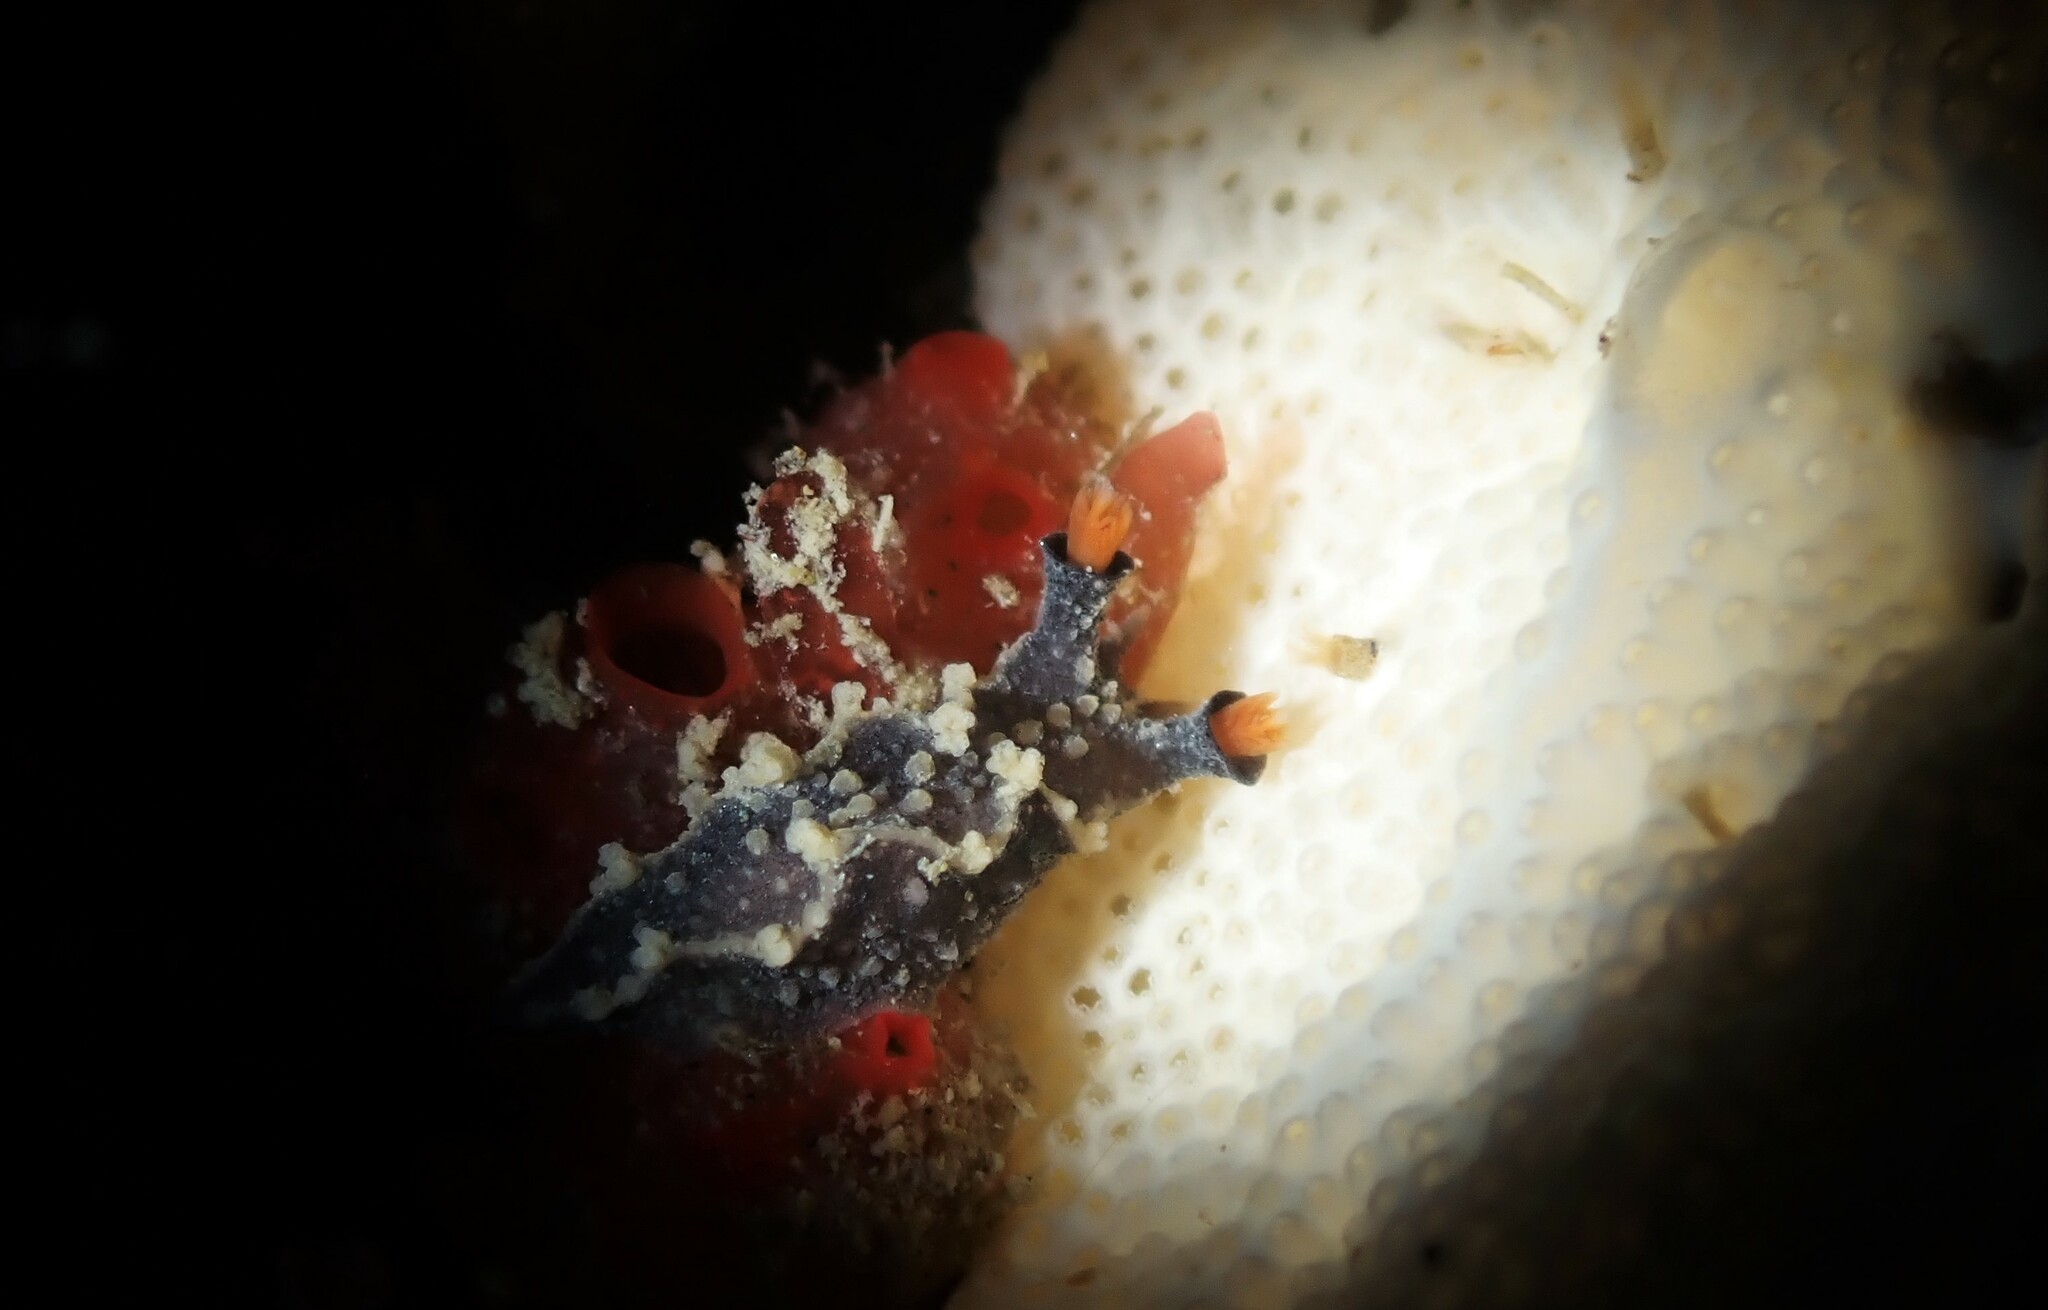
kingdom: Animalia
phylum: Mollusca
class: Gastropoda
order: Nudibranchia
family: Tritoniidae
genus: Tritonia
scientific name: Tritonia flemingi
